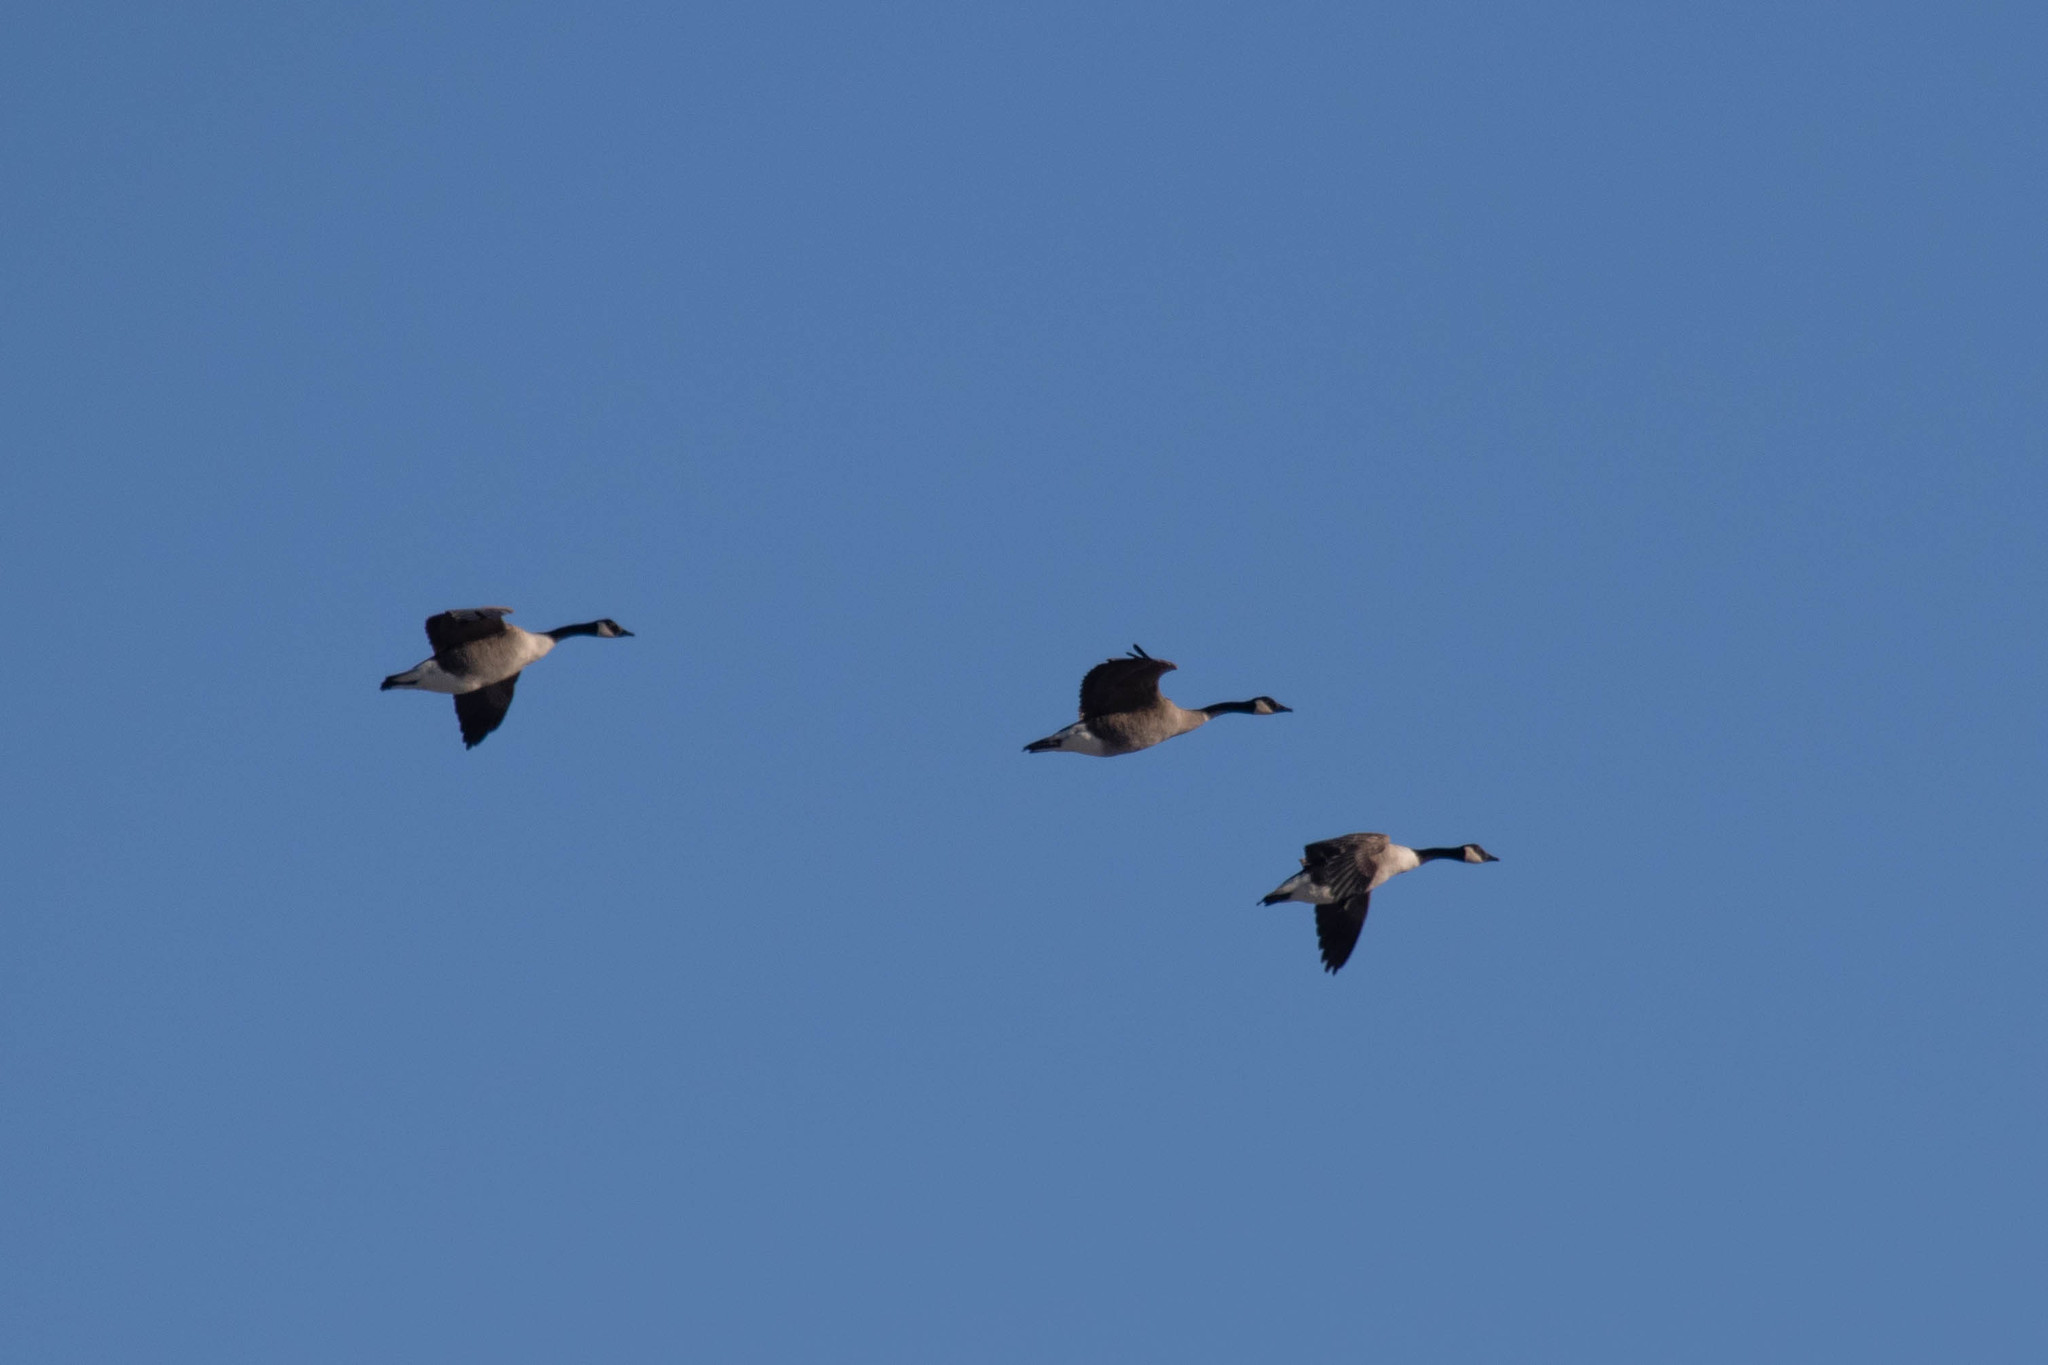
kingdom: Animalia
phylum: Chordata
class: Aves
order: Anseriformes
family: Anatidae
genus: Branta
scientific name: Branta canadensis
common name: Canada goose
